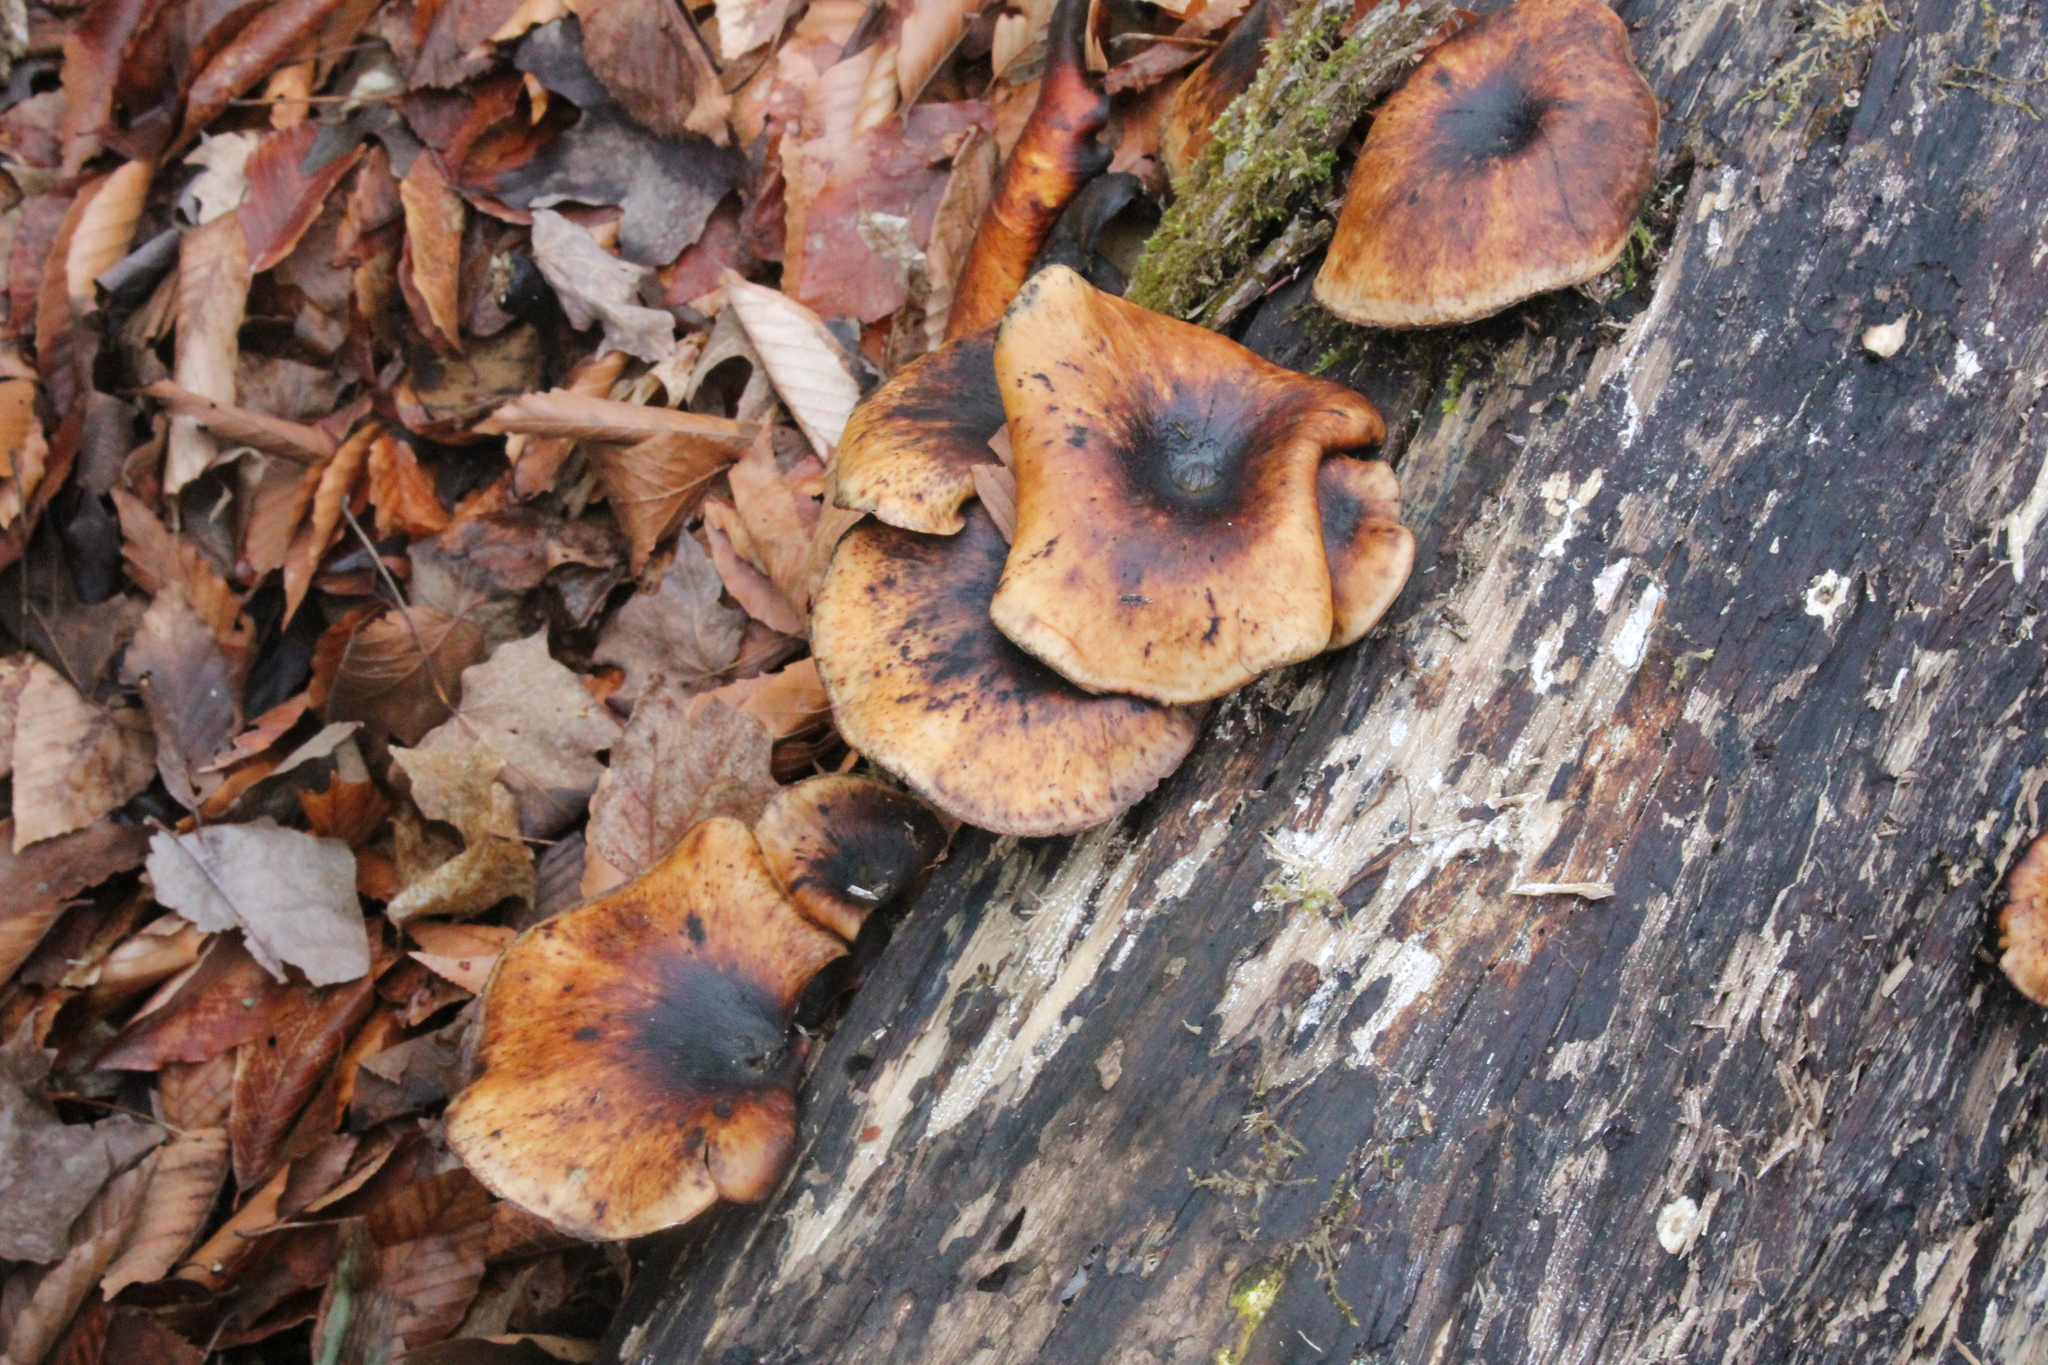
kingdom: Fungi
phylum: Basidiomycota
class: Agaricomycetes
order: Polyporales
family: Polyporaceae
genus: Picipes
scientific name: Picipes badius
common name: Bay polypore
